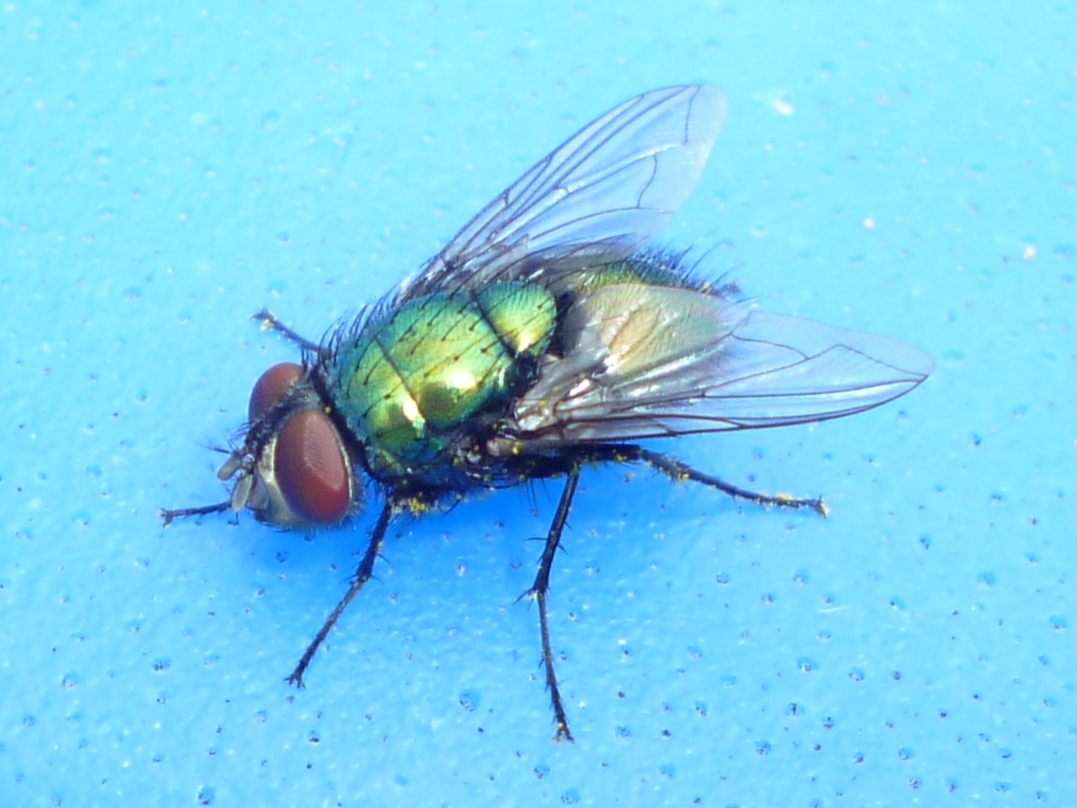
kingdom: Animalia
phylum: Arthropoda
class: Insecta
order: Diptera
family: Calliphoridae
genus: Lucilia
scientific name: Lucilia sericata
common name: Blow fly
